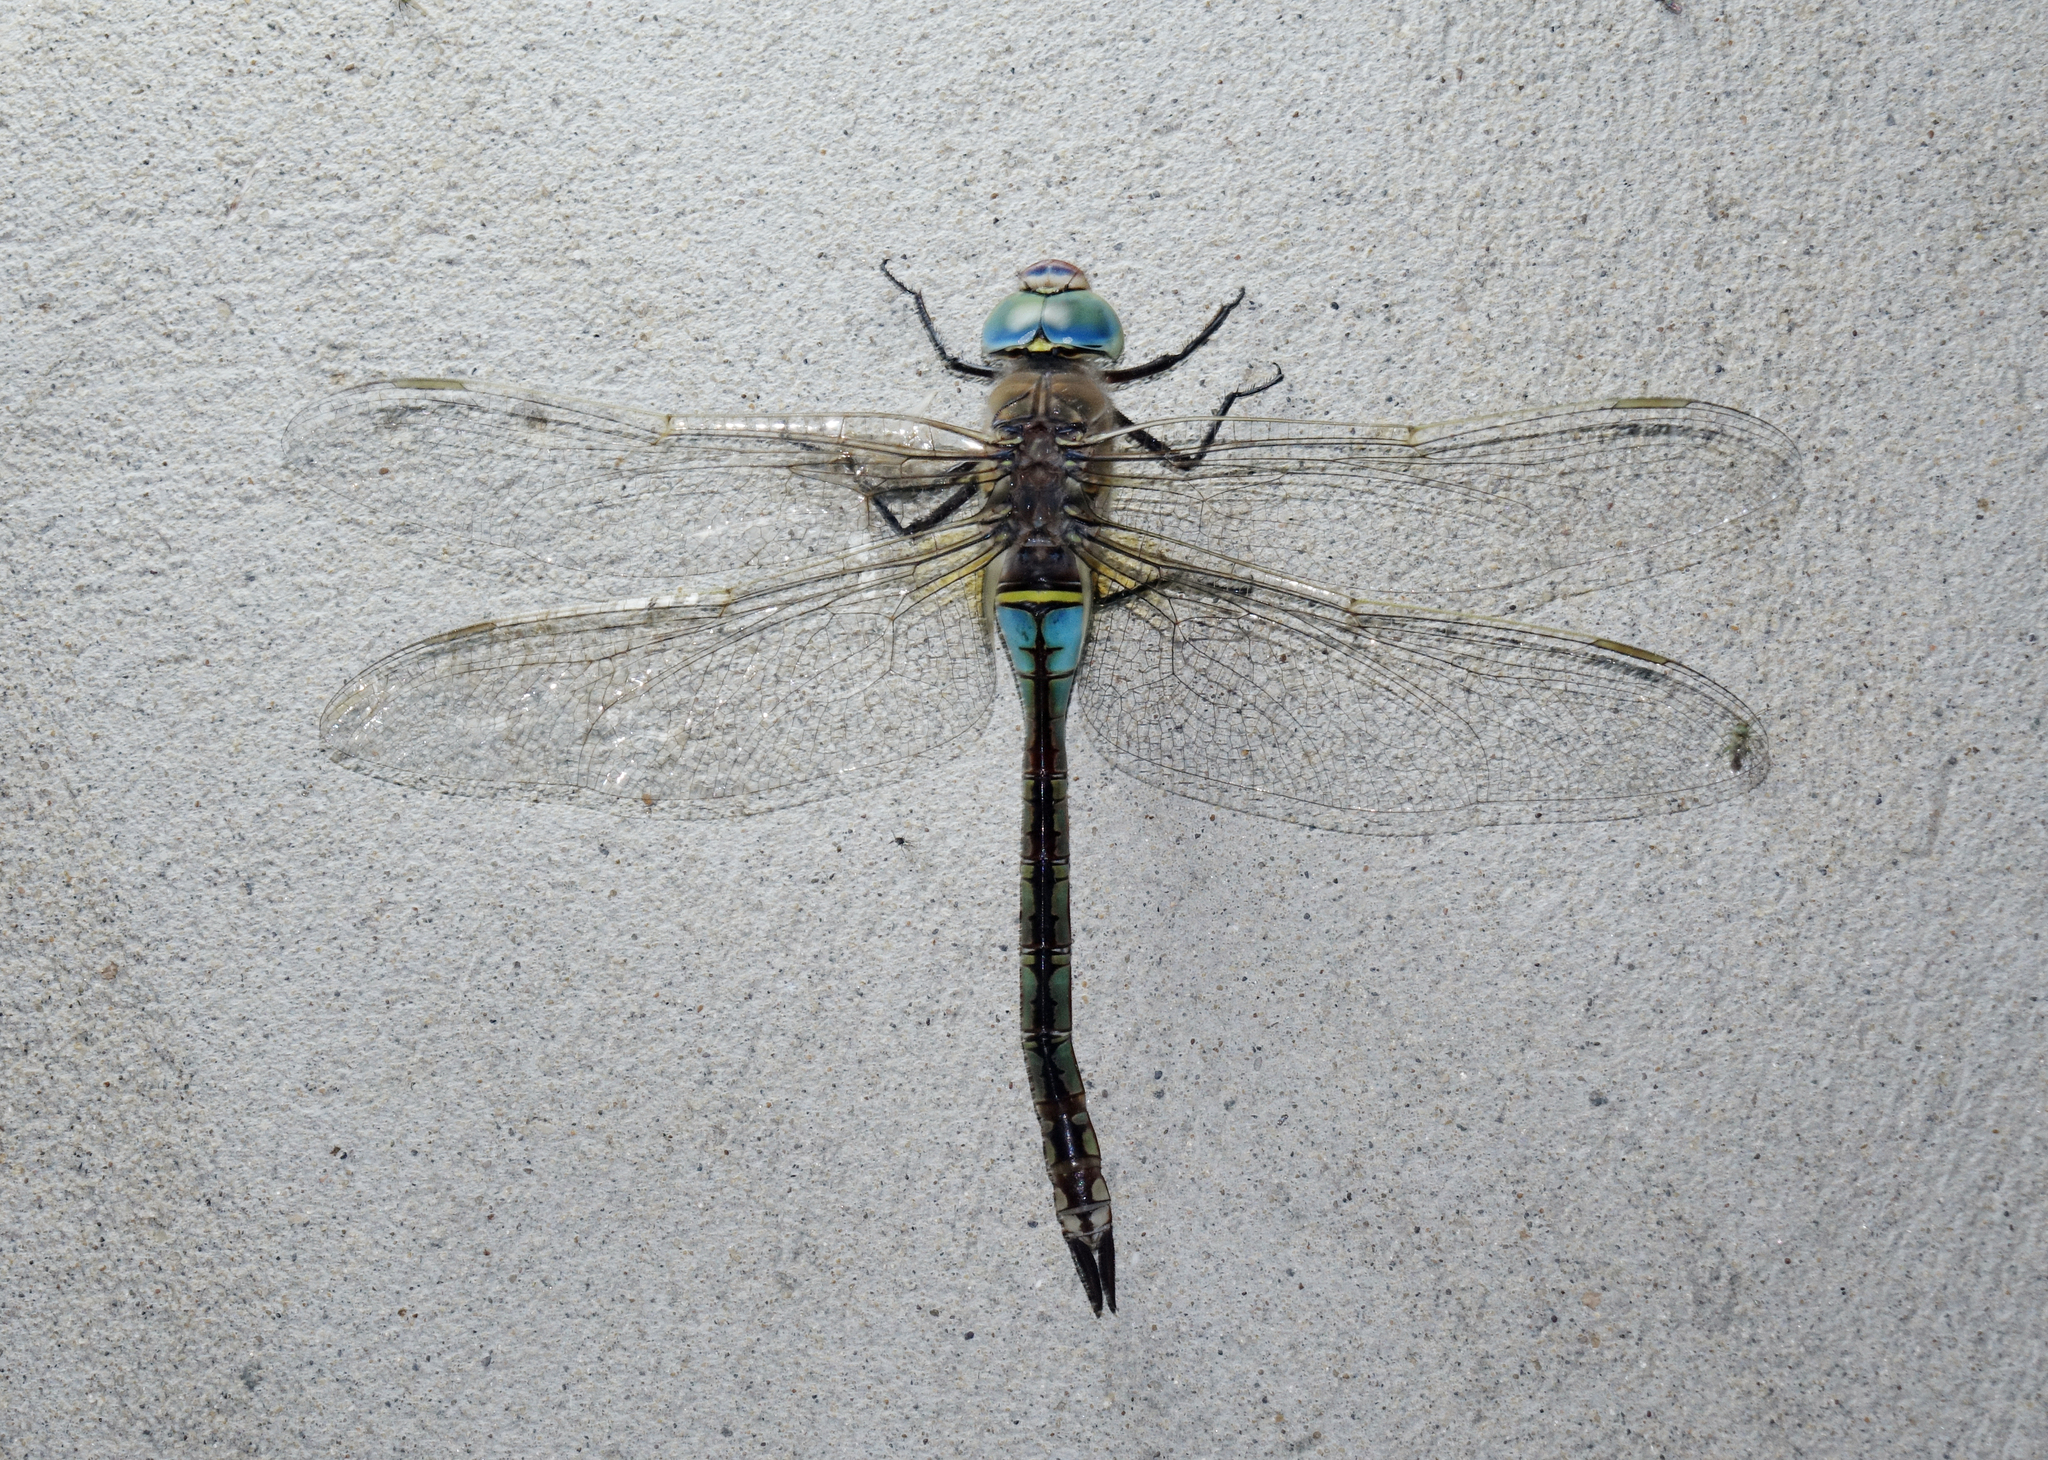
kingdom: Animalia
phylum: Arthropoda
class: Insecta
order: Odonata
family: Aeshnidae
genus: Anax
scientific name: Anax parthenope
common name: Lesser emperor
